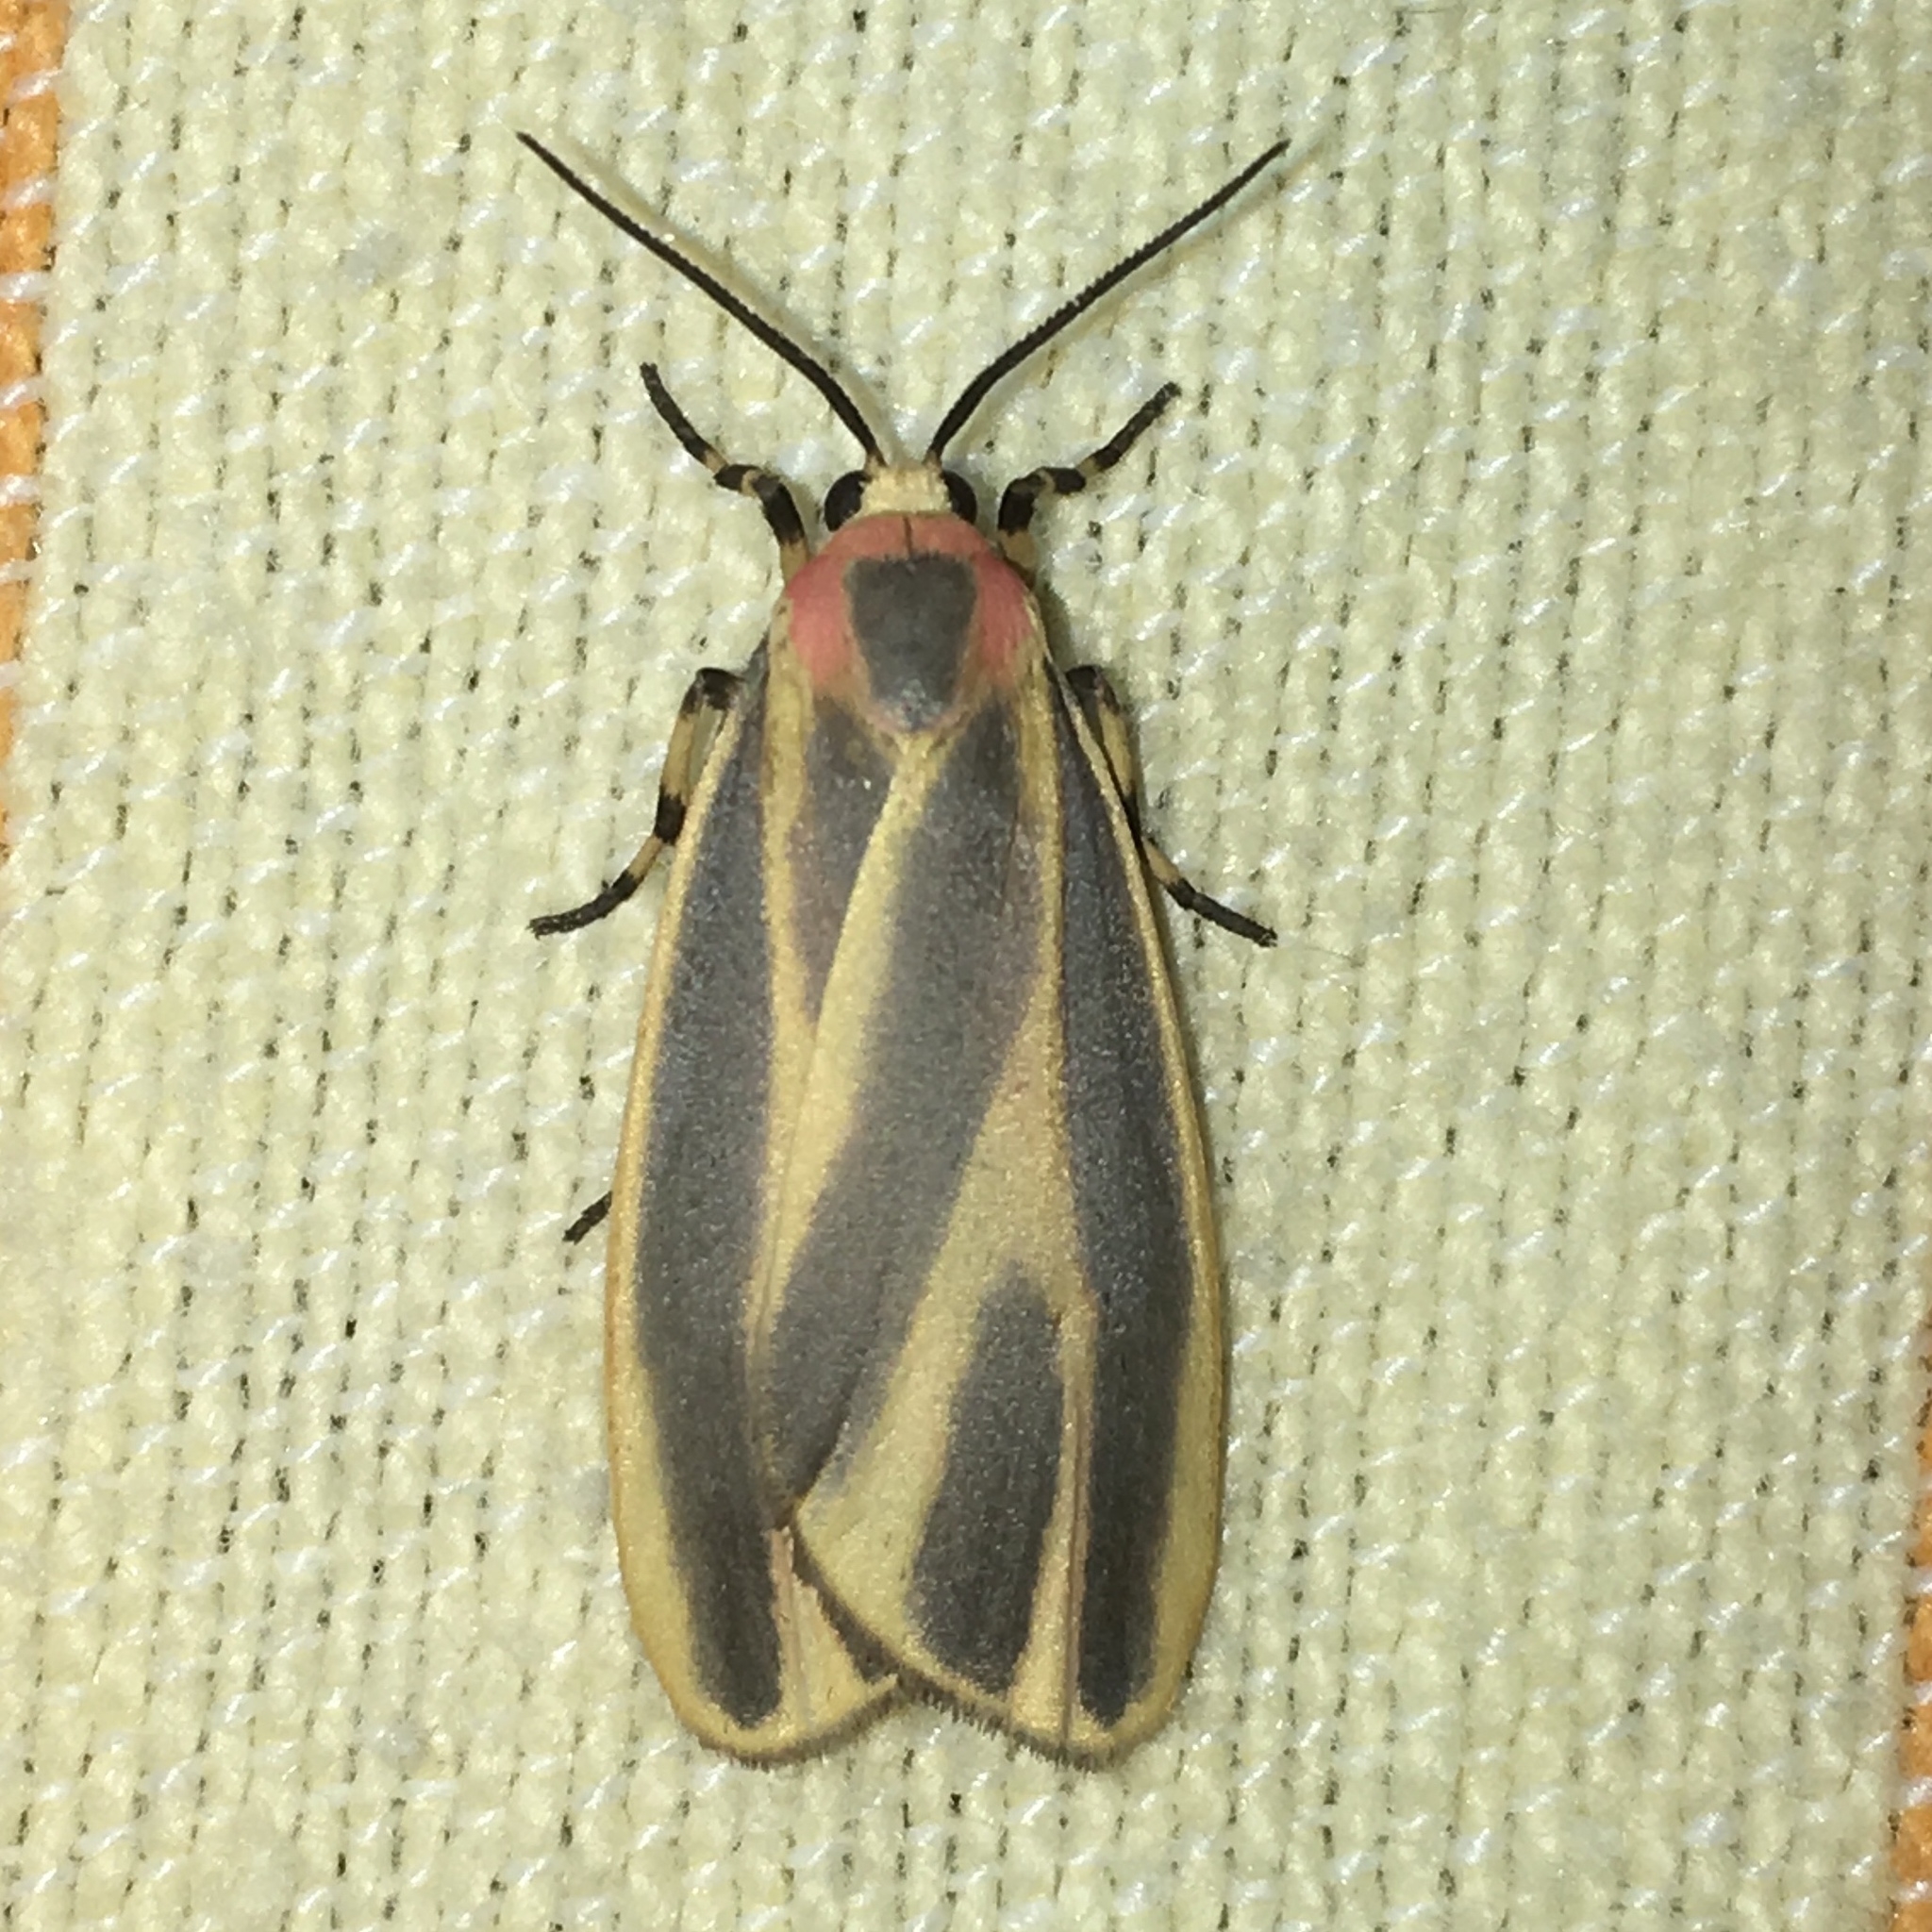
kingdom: Animalia
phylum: Arthropoda
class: Insecta
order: Lepidoptera
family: Erebidae
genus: Hypoprepia
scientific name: Hypoprepia fucosa
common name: Painted lichen moth
